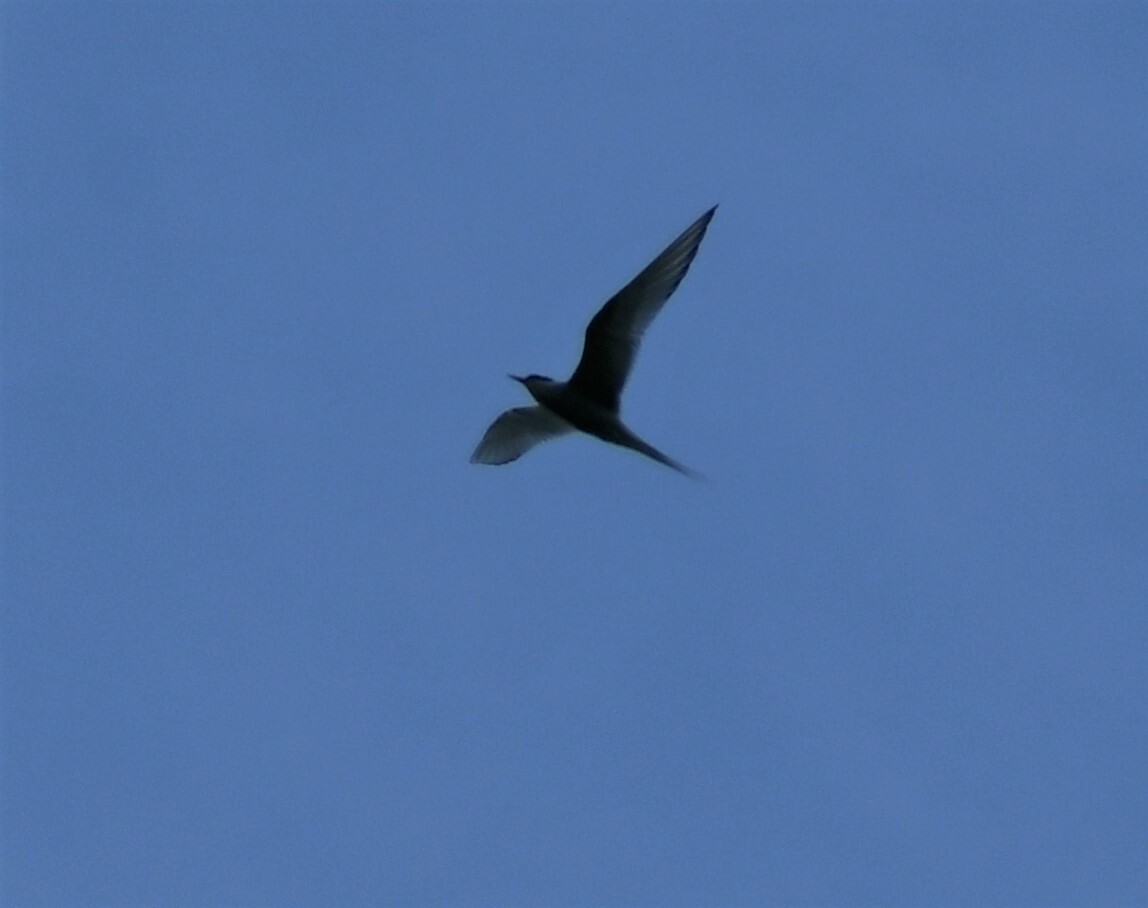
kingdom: Animalia
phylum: Chordata
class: Aves
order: Charadriiformes
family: Laridae
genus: Sterna
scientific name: Sterna paradisaea
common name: Arctic tern
